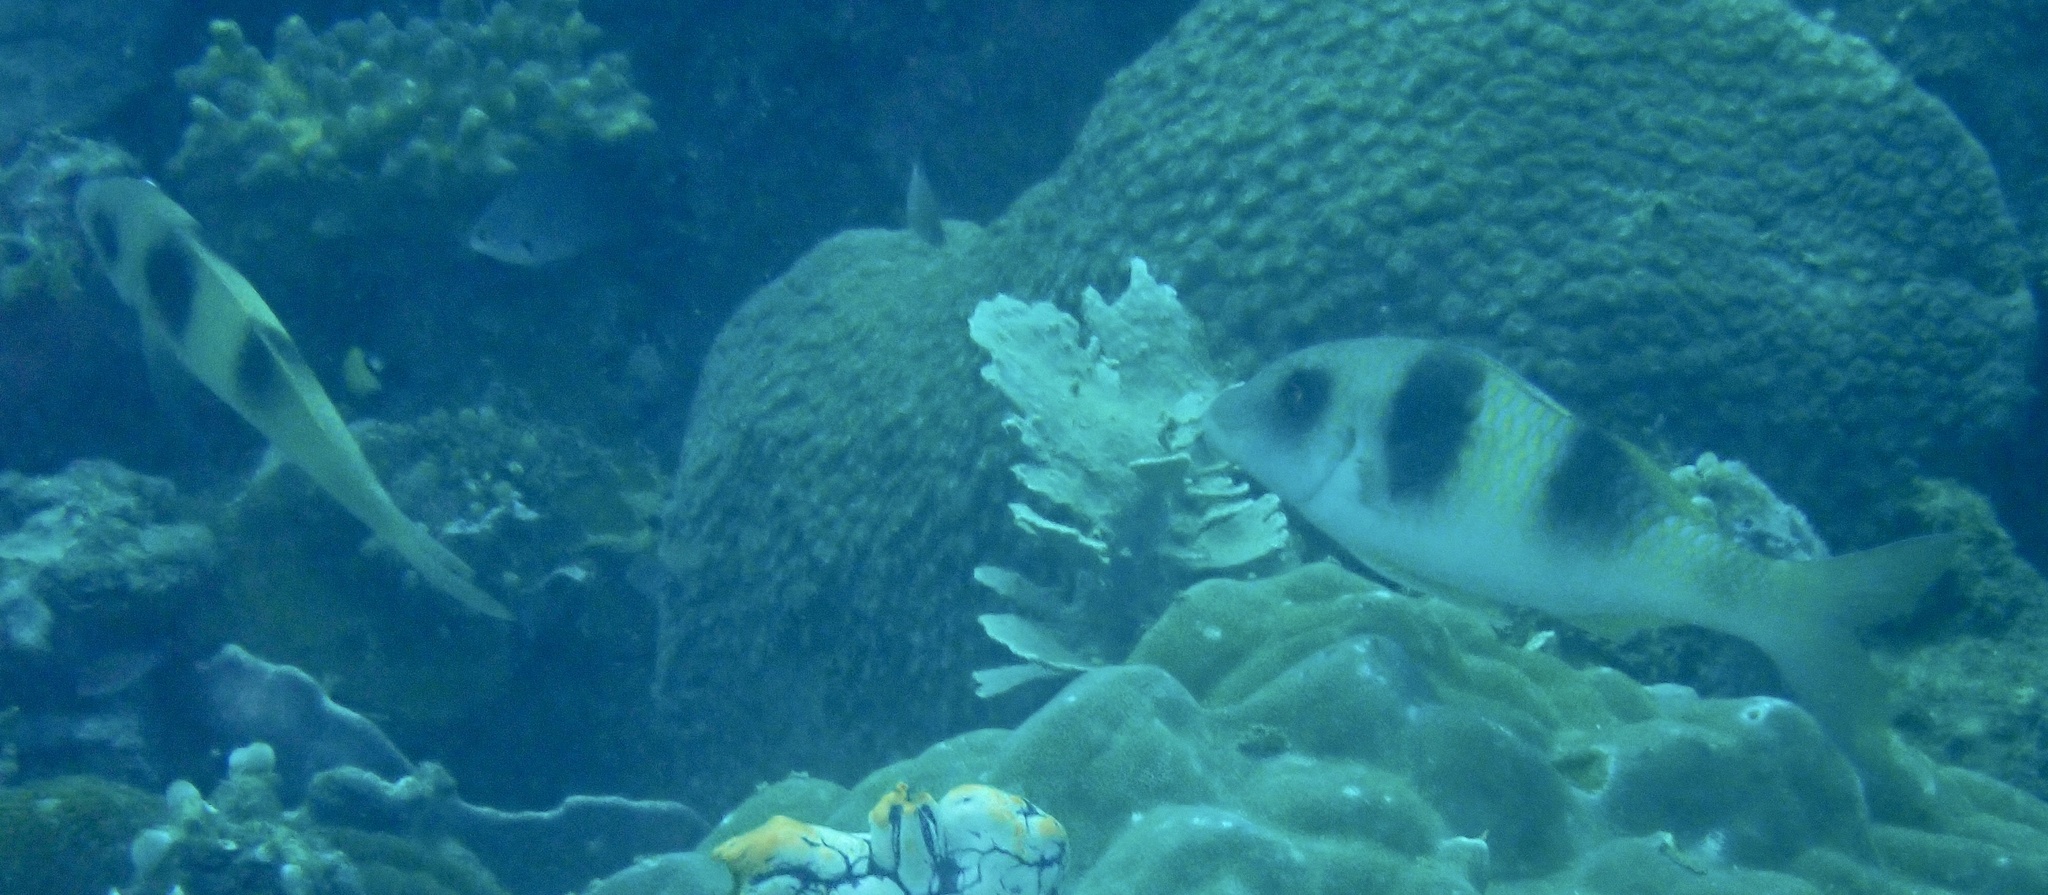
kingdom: Animalia
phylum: Chordata
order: Perciformes
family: Mullidae
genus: Parupeneus
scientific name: Parupeneus crassilabris
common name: Doublebar goatfish
